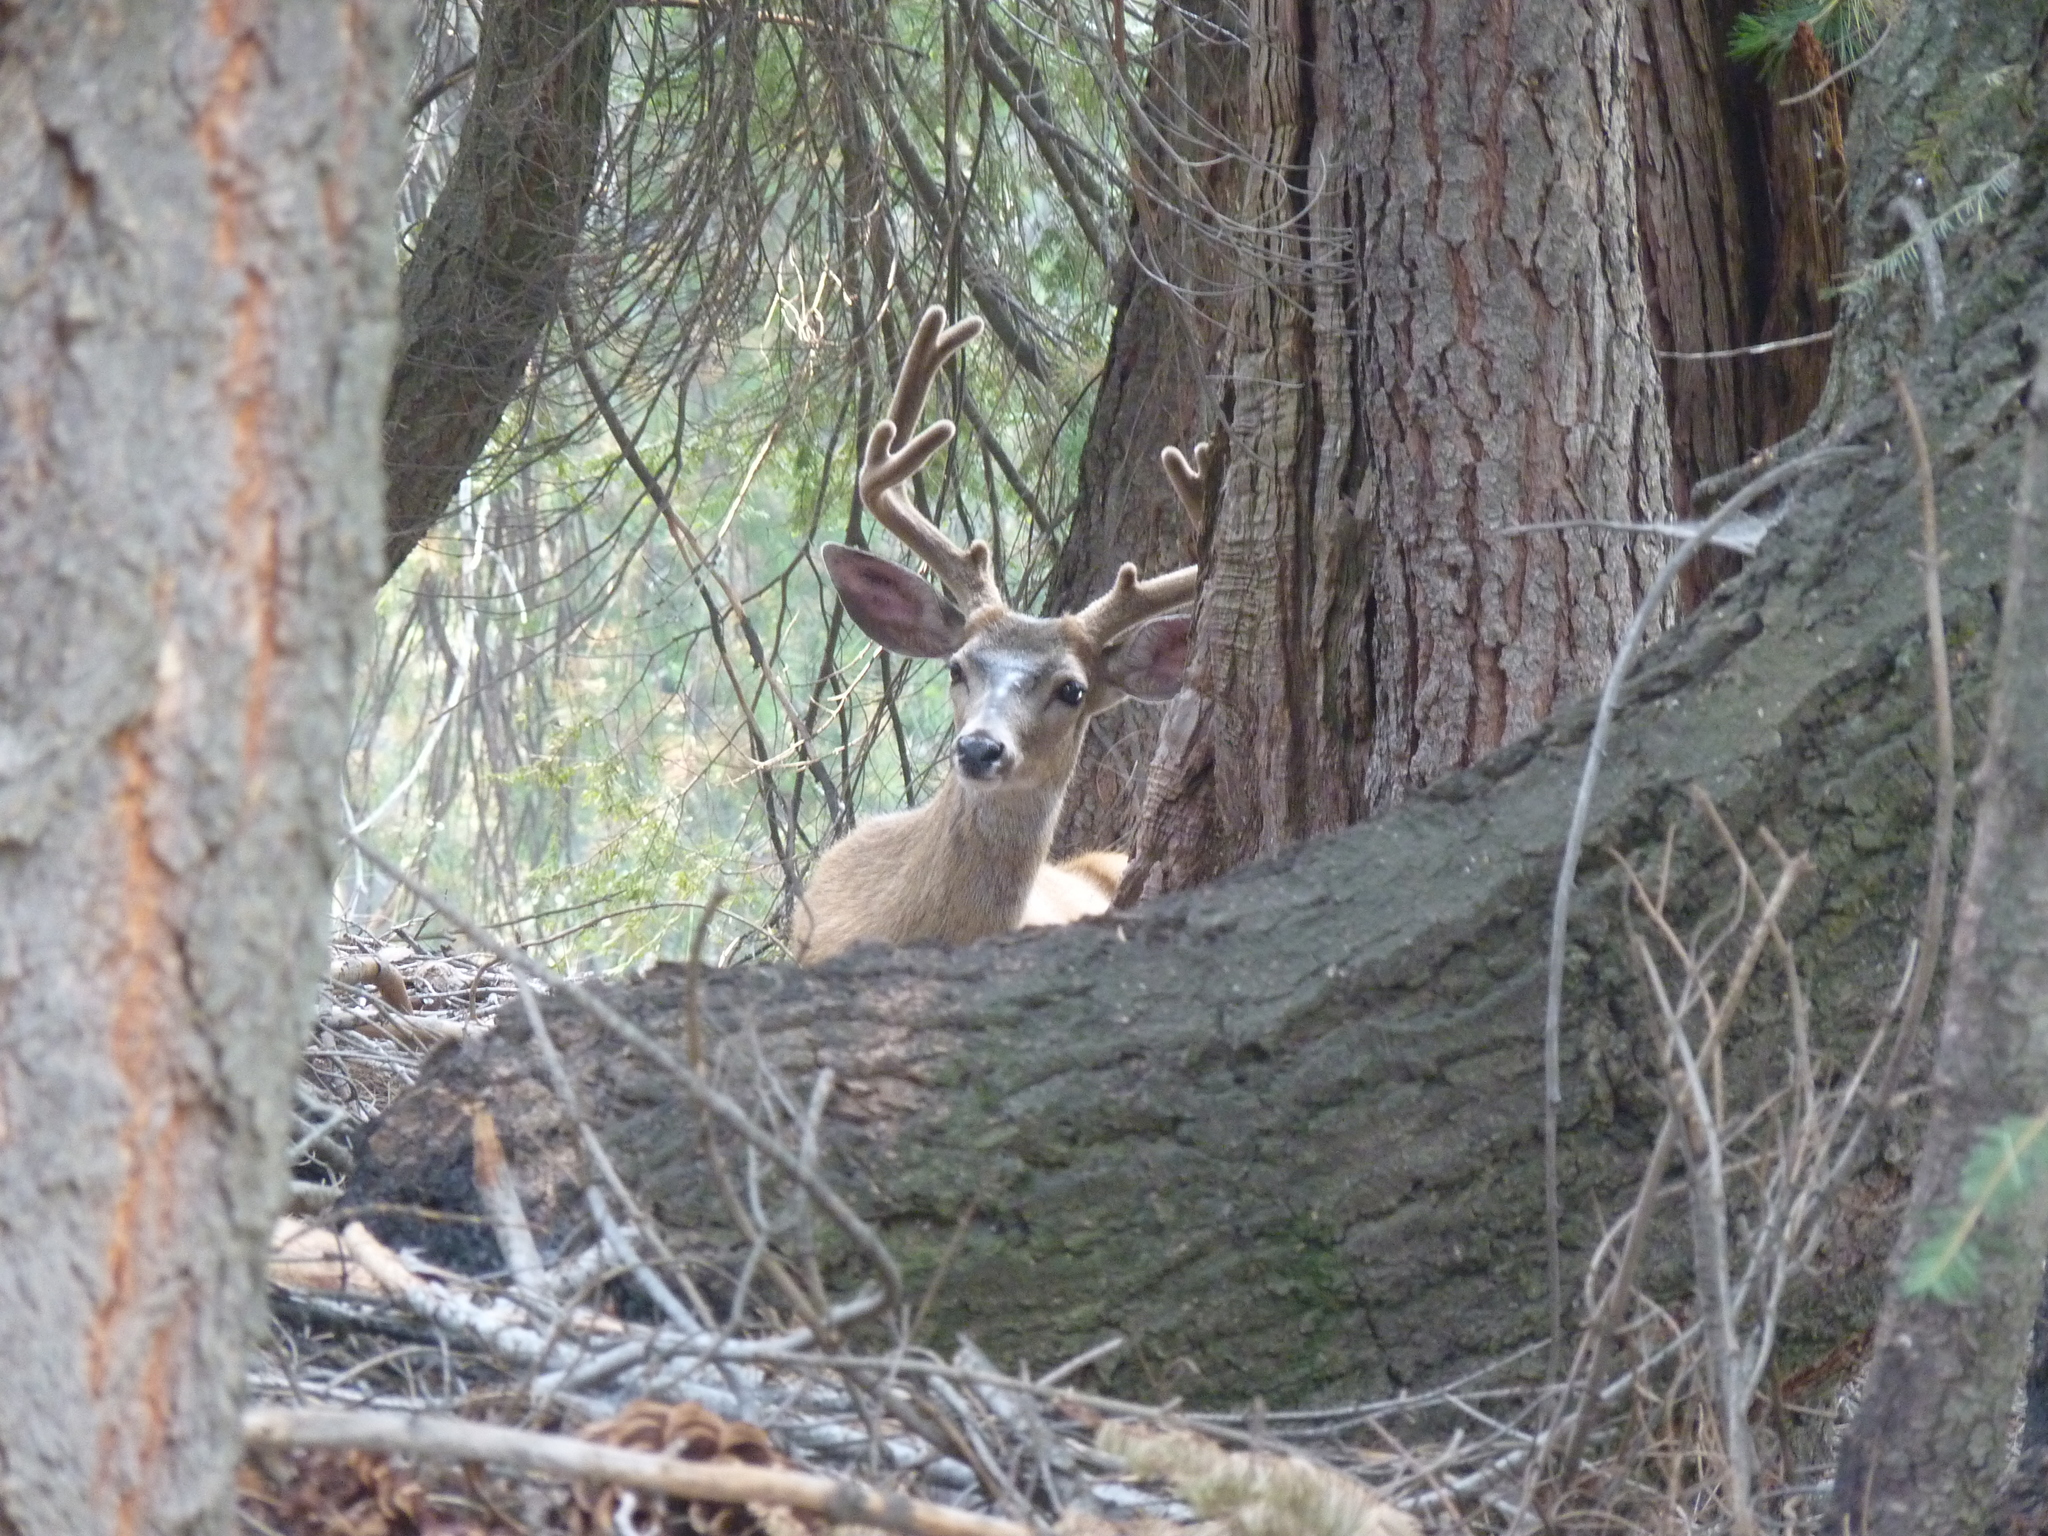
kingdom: Animalia
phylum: Chordata
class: Mammalia
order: Artiodactyla
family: Cervidae
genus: Odocoileus
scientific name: Odocoileus hemionus
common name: Mule deer
